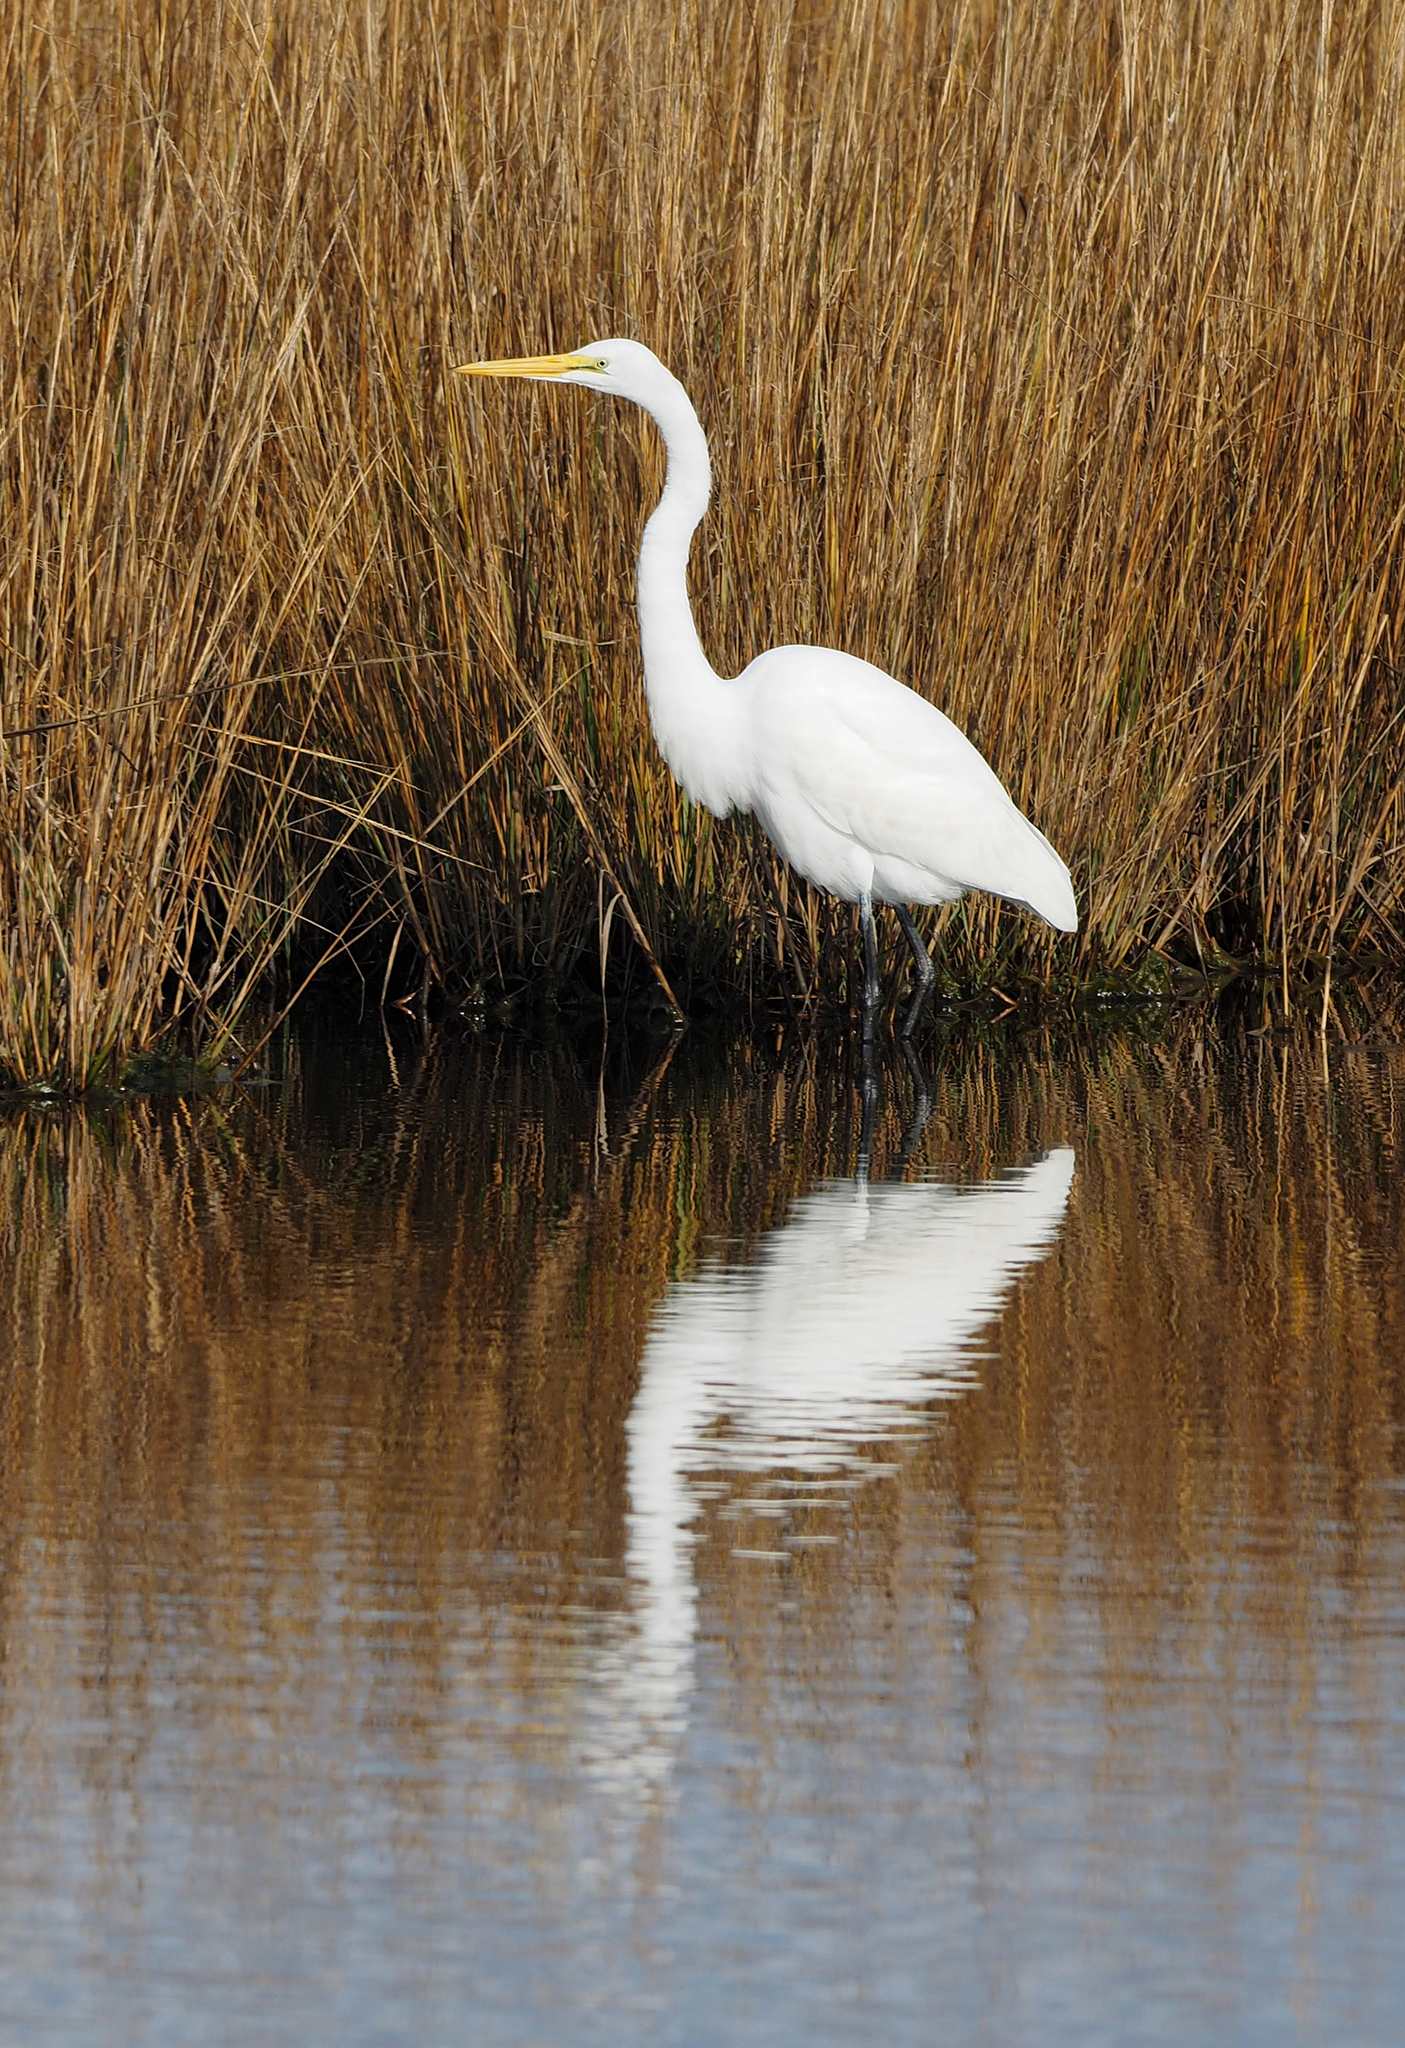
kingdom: Animalia
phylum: Chordata
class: Aves
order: Pelecaniformes
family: Ardeidae
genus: Ardea
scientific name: Ardea alba
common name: Great egret
